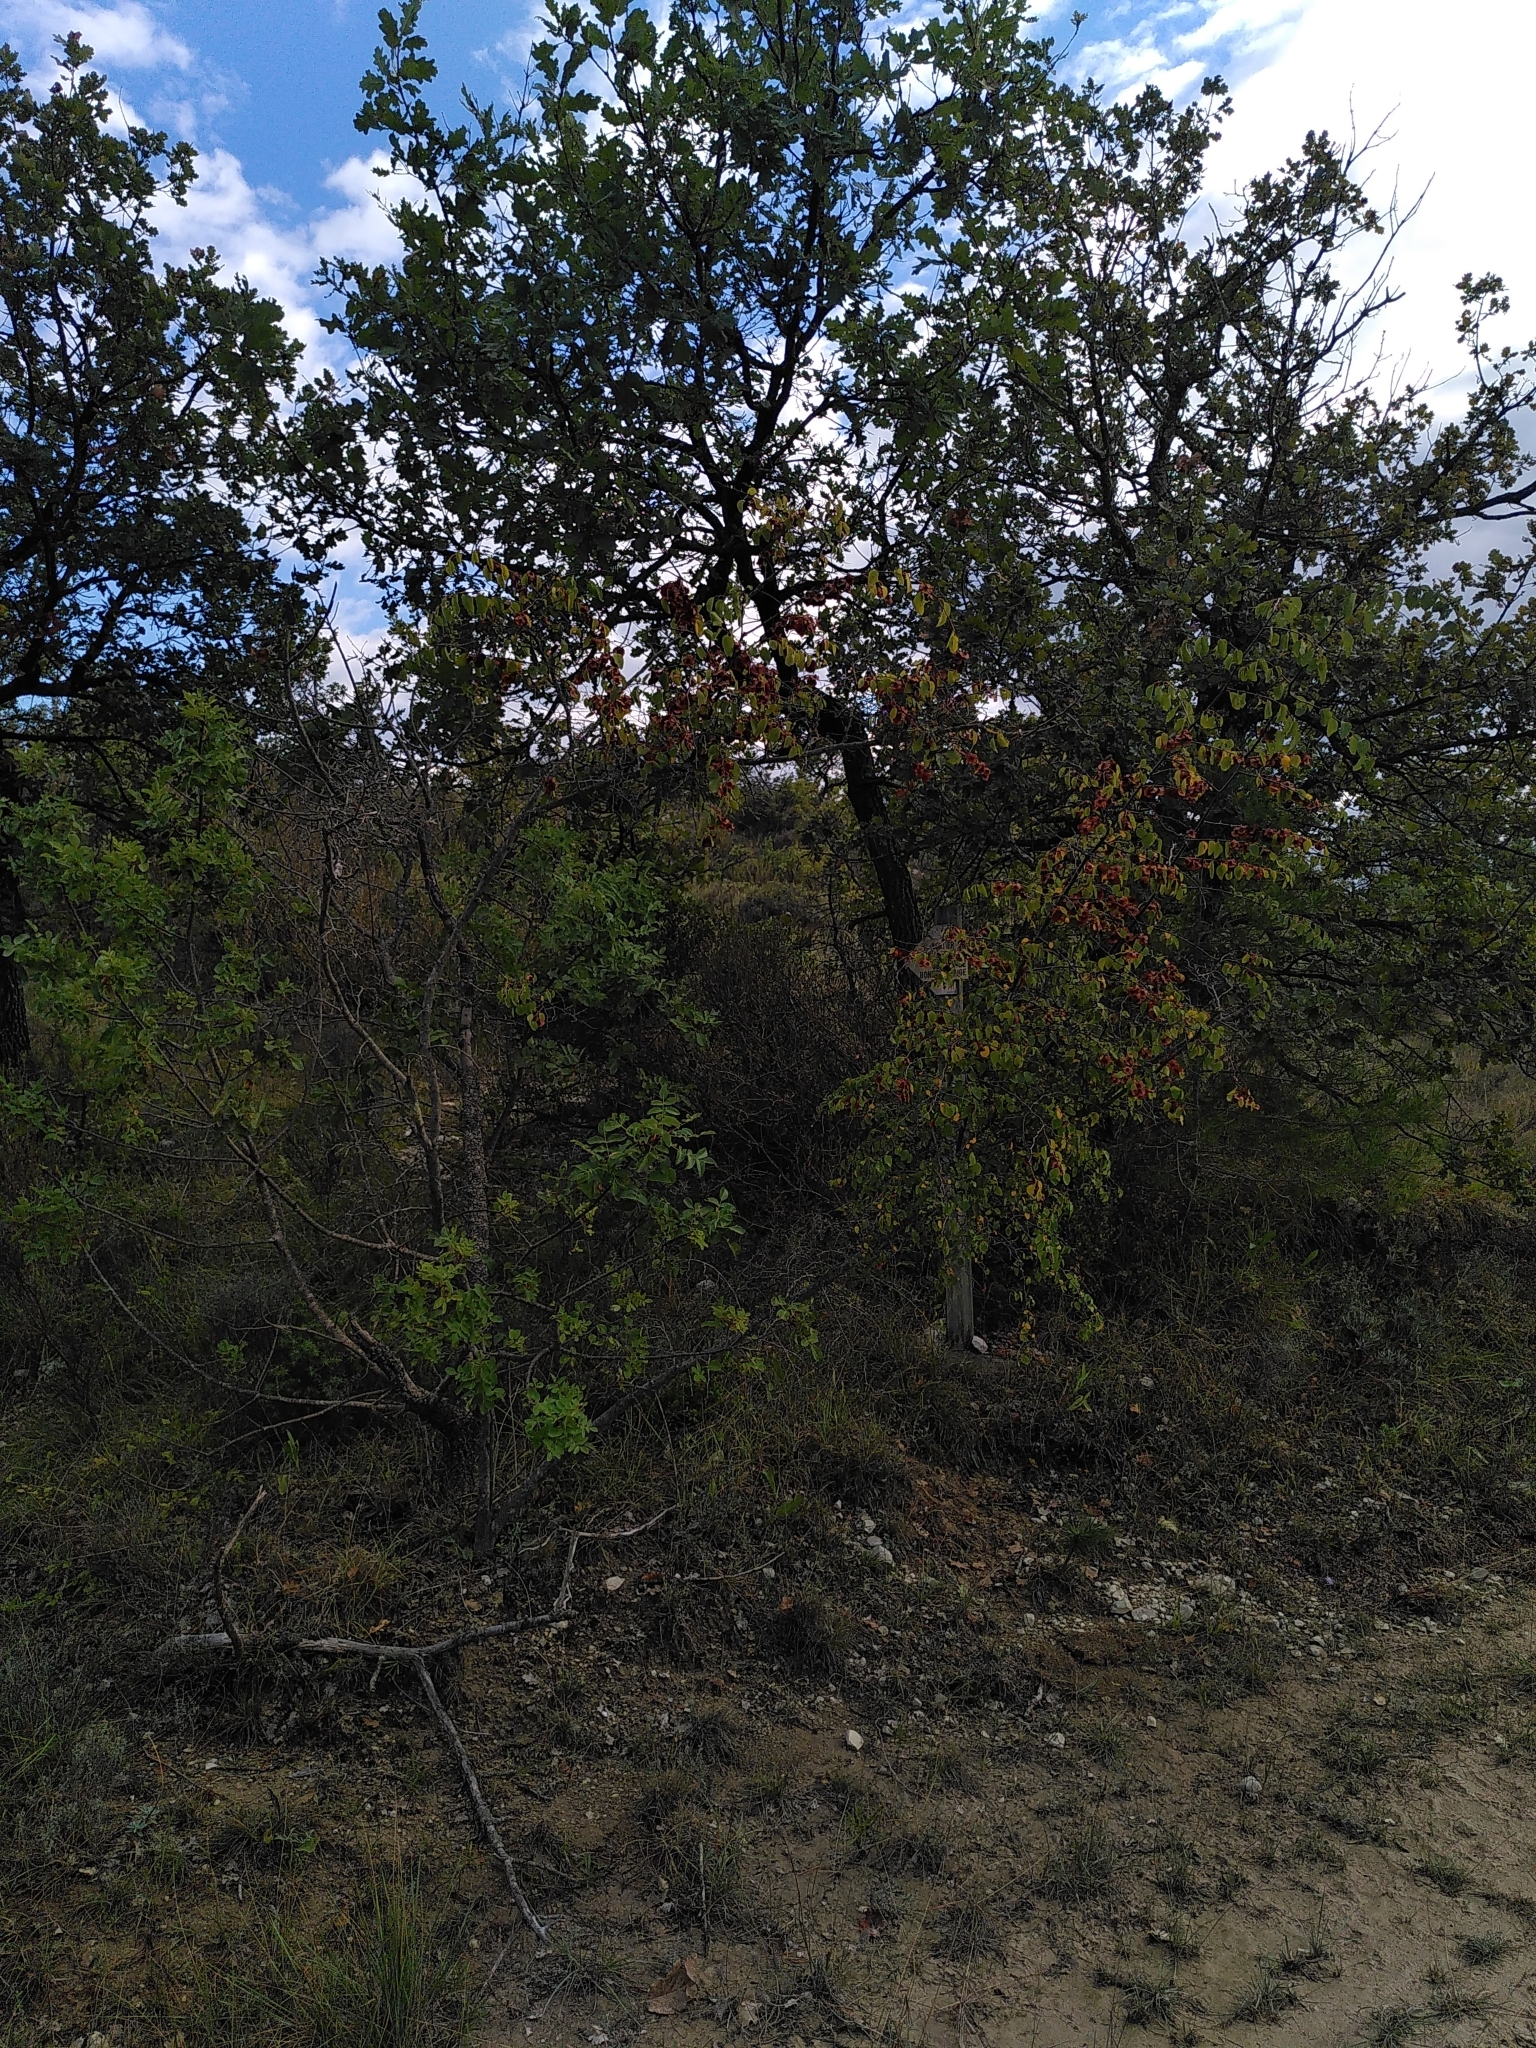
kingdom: Plantae
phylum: Tracheophyta
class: Magnoliopsida
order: Rosales
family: Rhamnaceae
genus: Paliurus
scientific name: Paliurus spina-christi
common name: Jeruselem thorn
